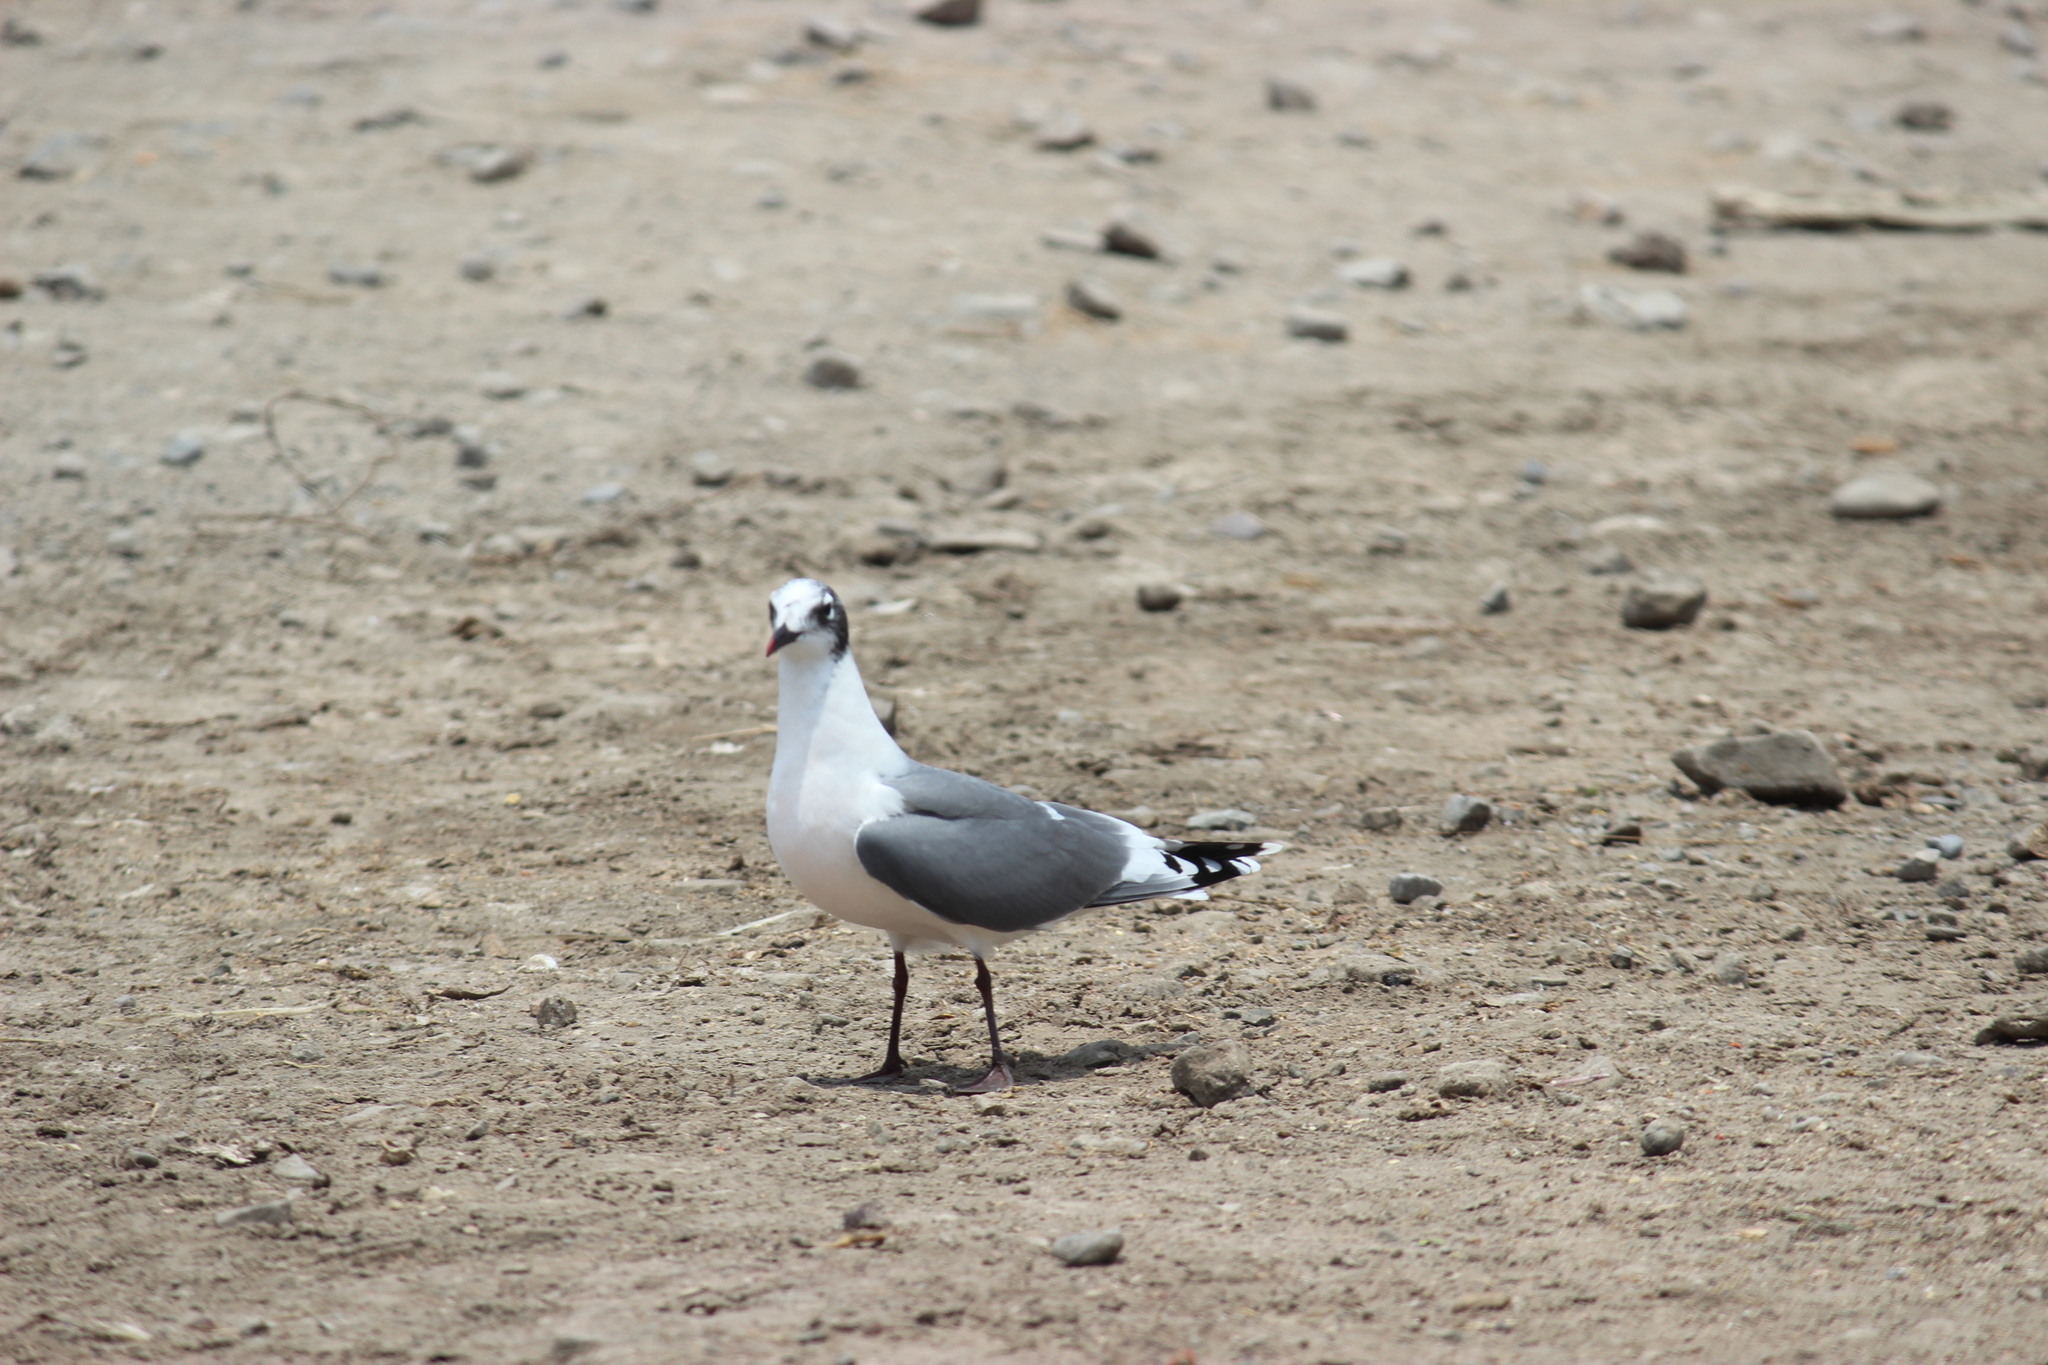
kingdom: Animalia
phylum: Chordata
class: Aves
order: Charadriiformes
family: Laridae
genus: Leucophaeus
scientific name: Leucophaeus pipixcan
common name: Franklin's gull
